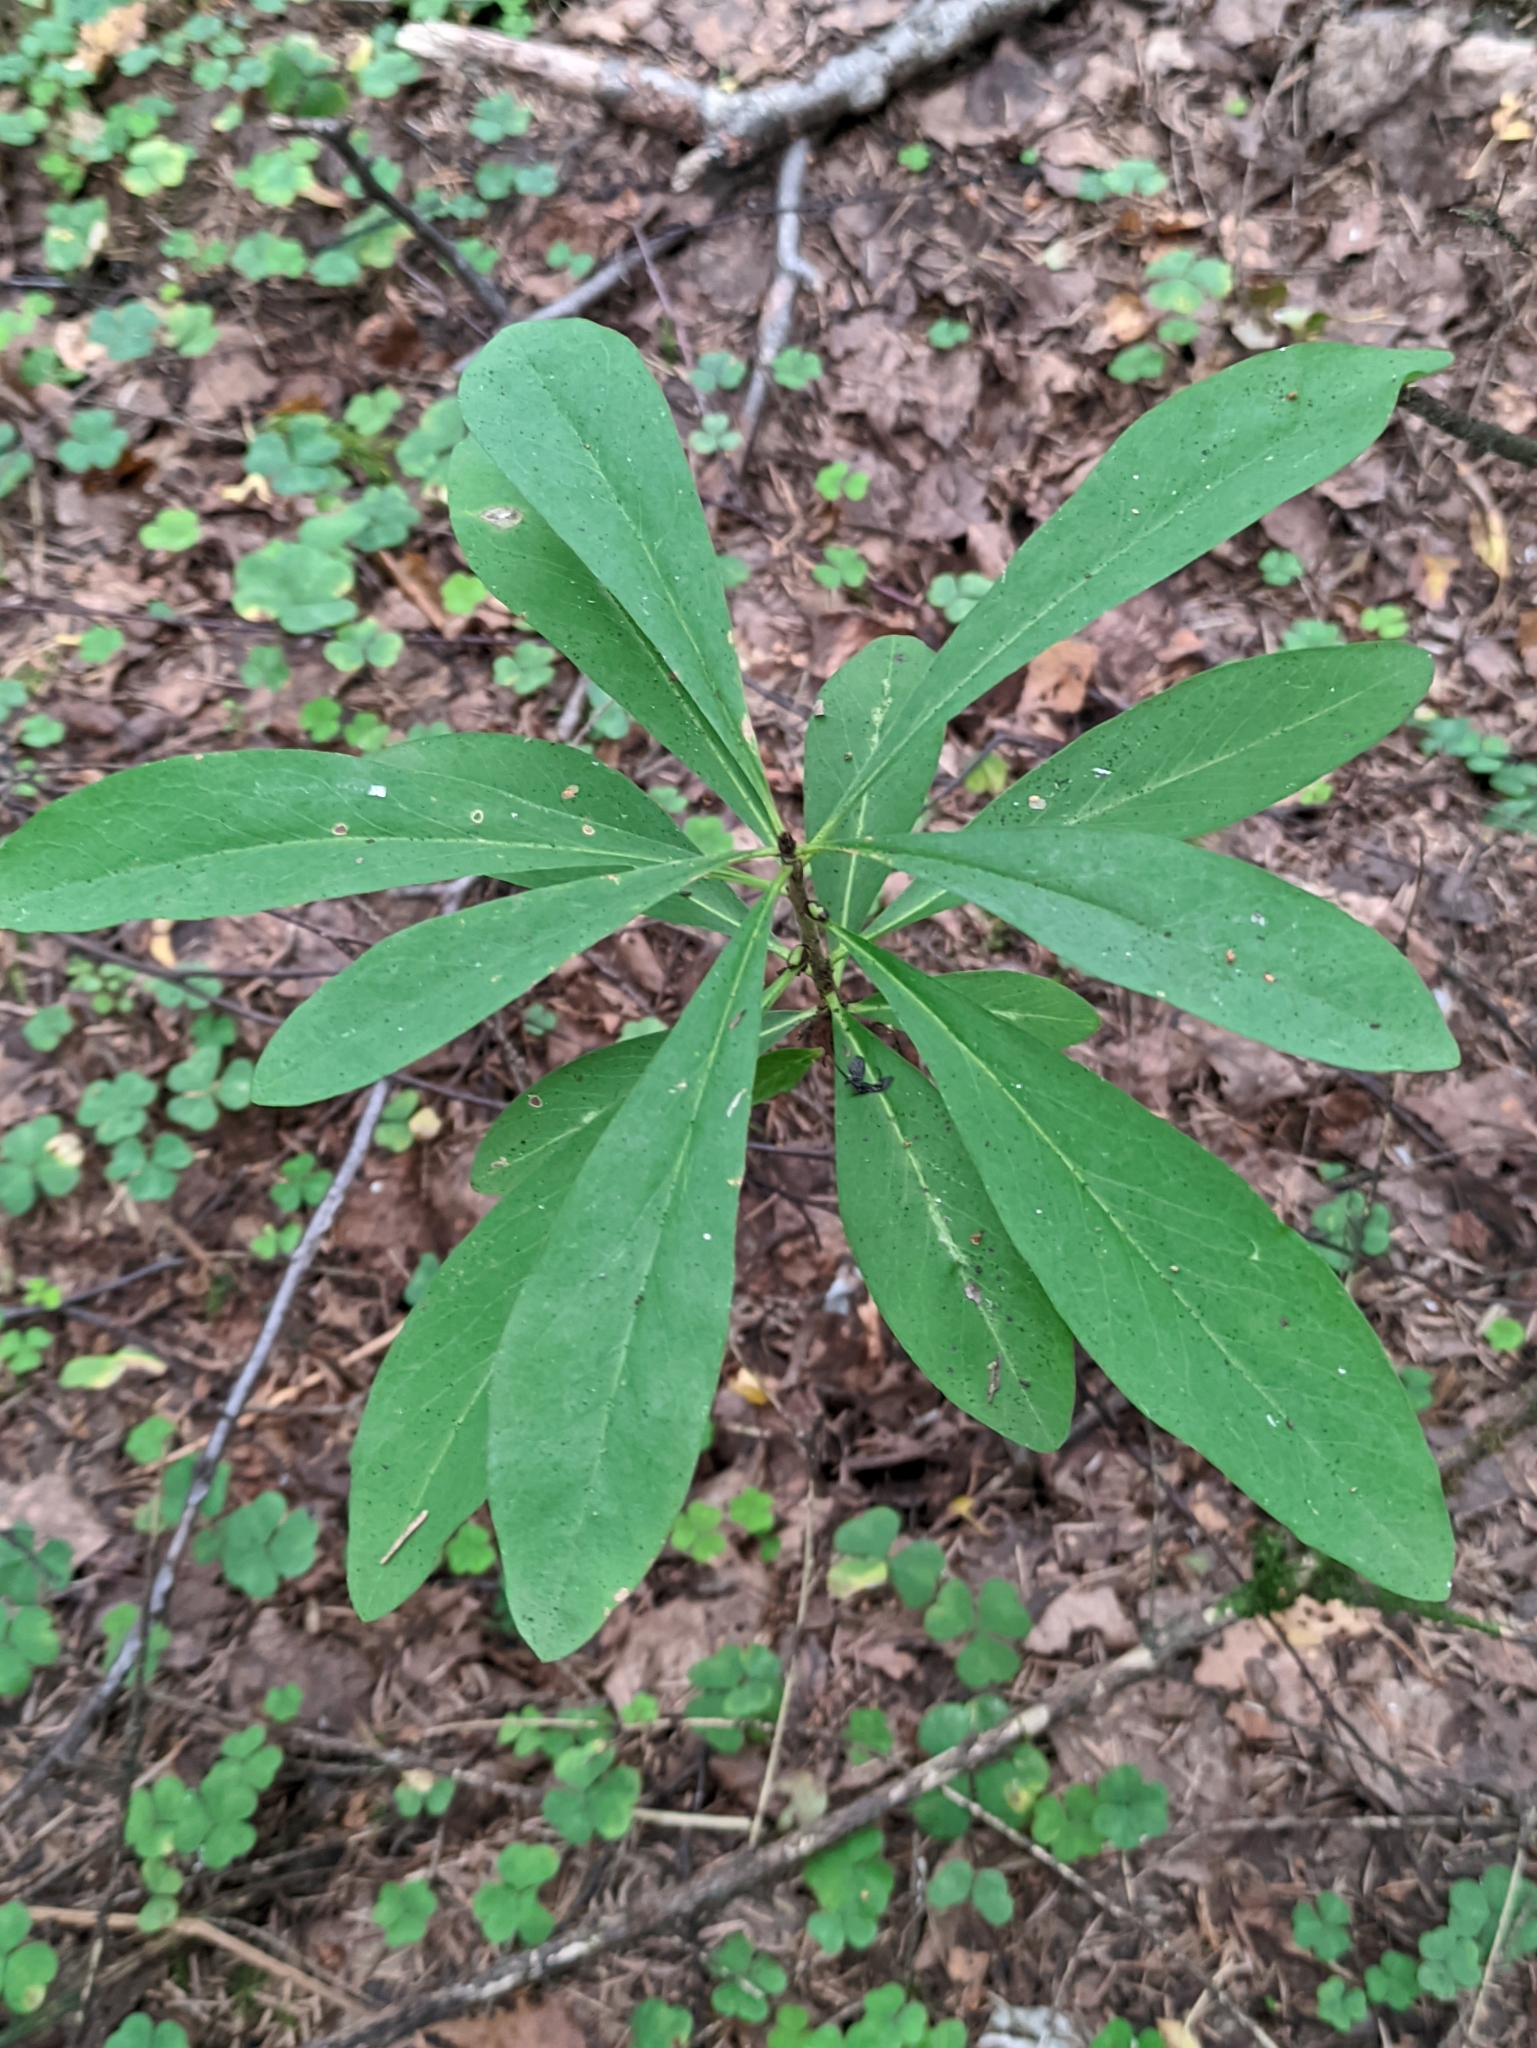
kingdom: Plantae
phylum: Tracheophyta
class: Magnoliopsida
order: Malvales
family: Thymelaeaceae
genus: Daphne
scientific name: Daphne mezereum
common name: Mezereon
